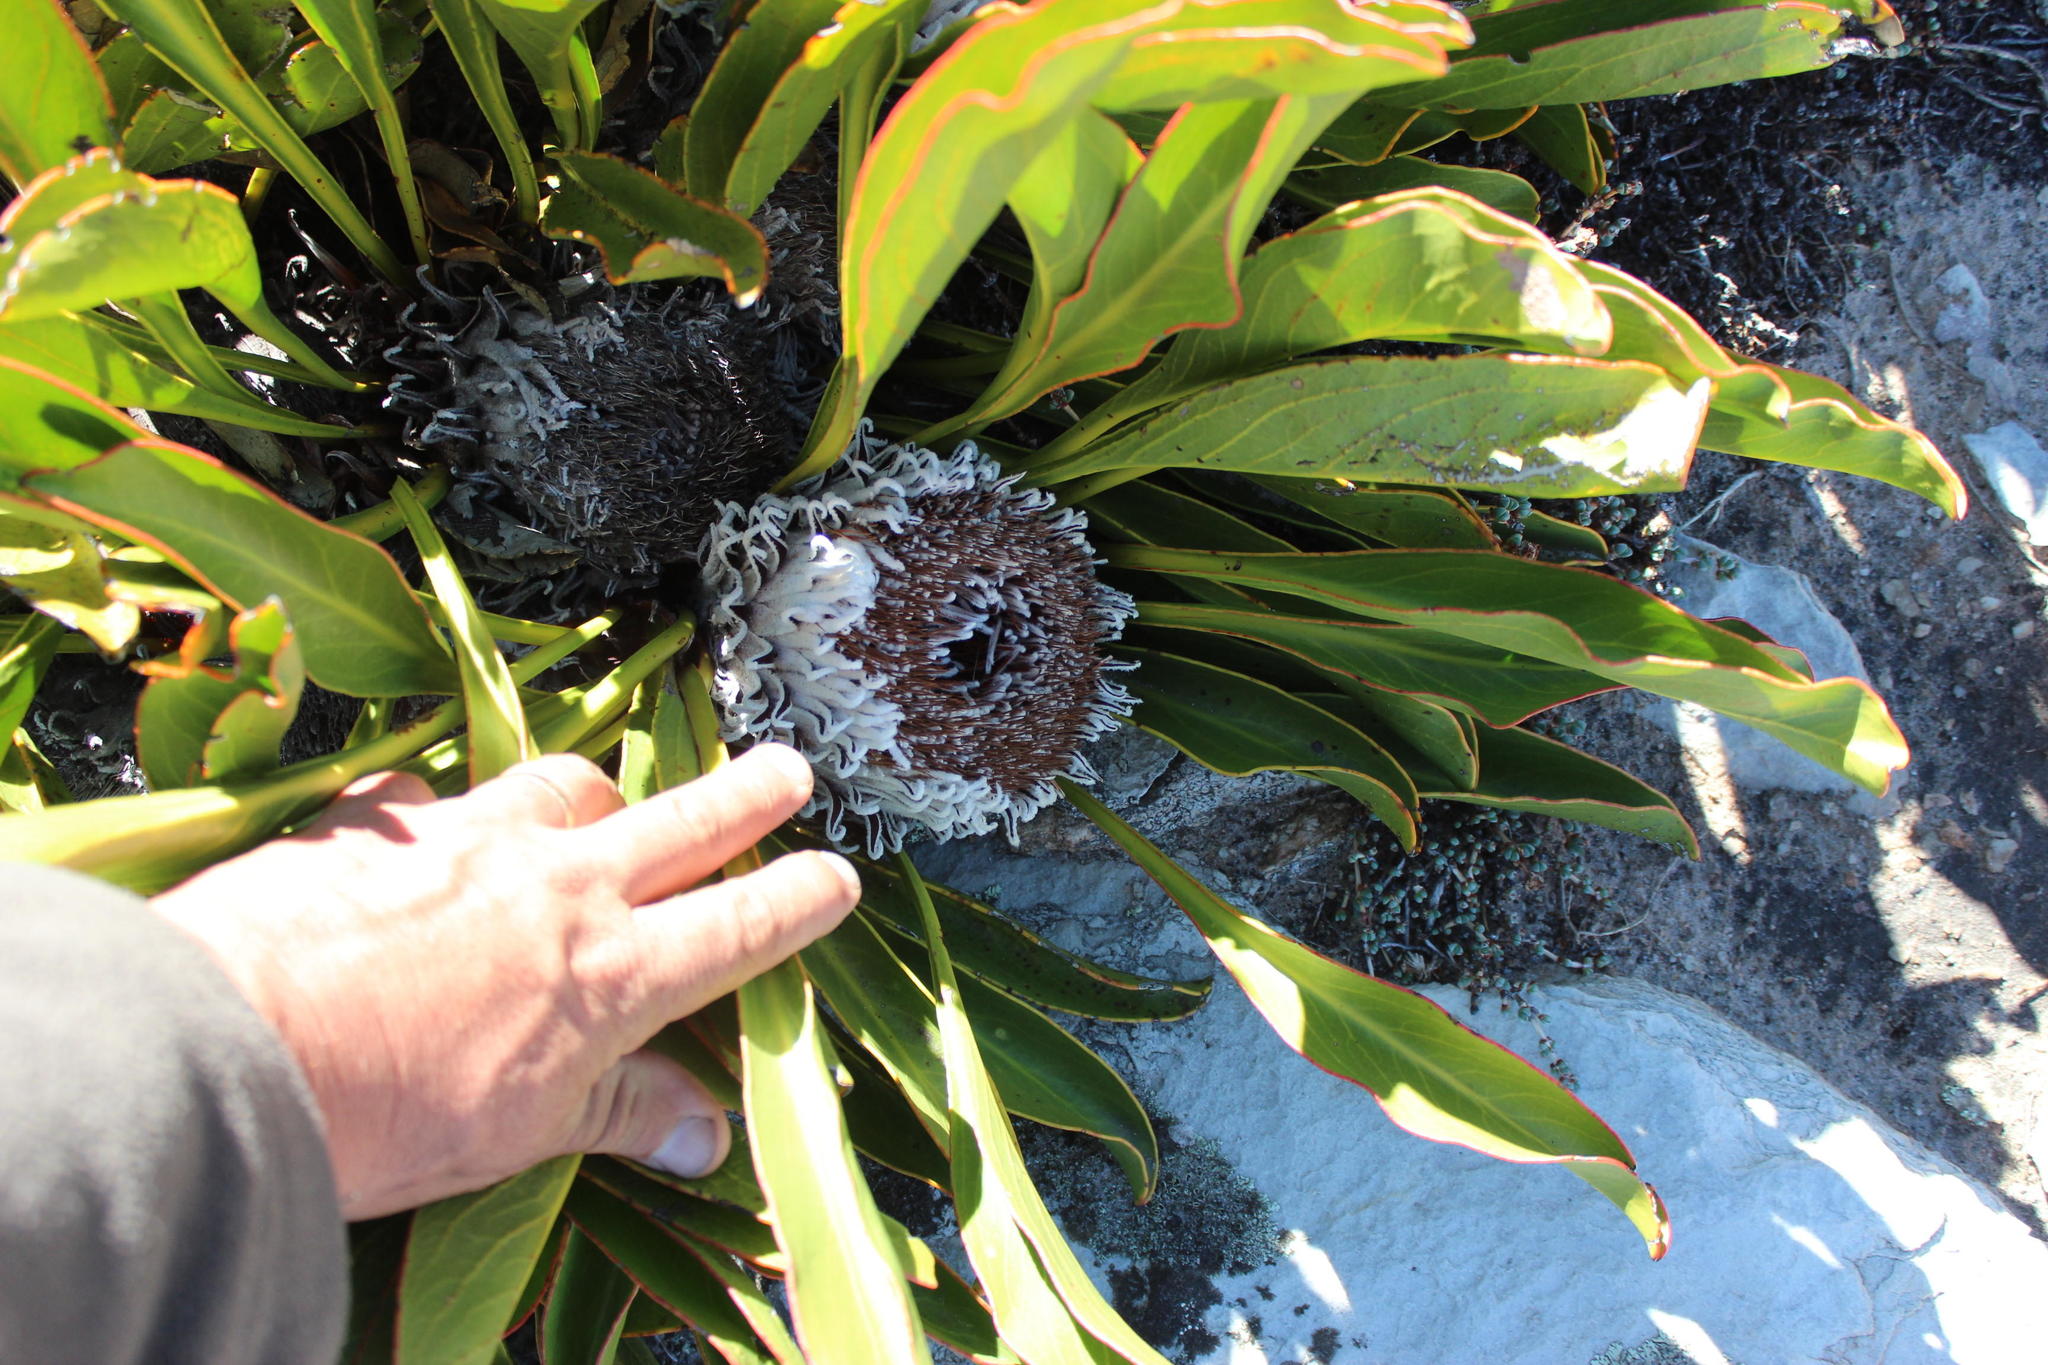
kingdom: Plantae
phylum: Tracheophyta
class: Magnoliopsida
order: Proteales
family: Proteaceae
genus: Protea
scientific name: Protea cryophila
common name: Snow protea
